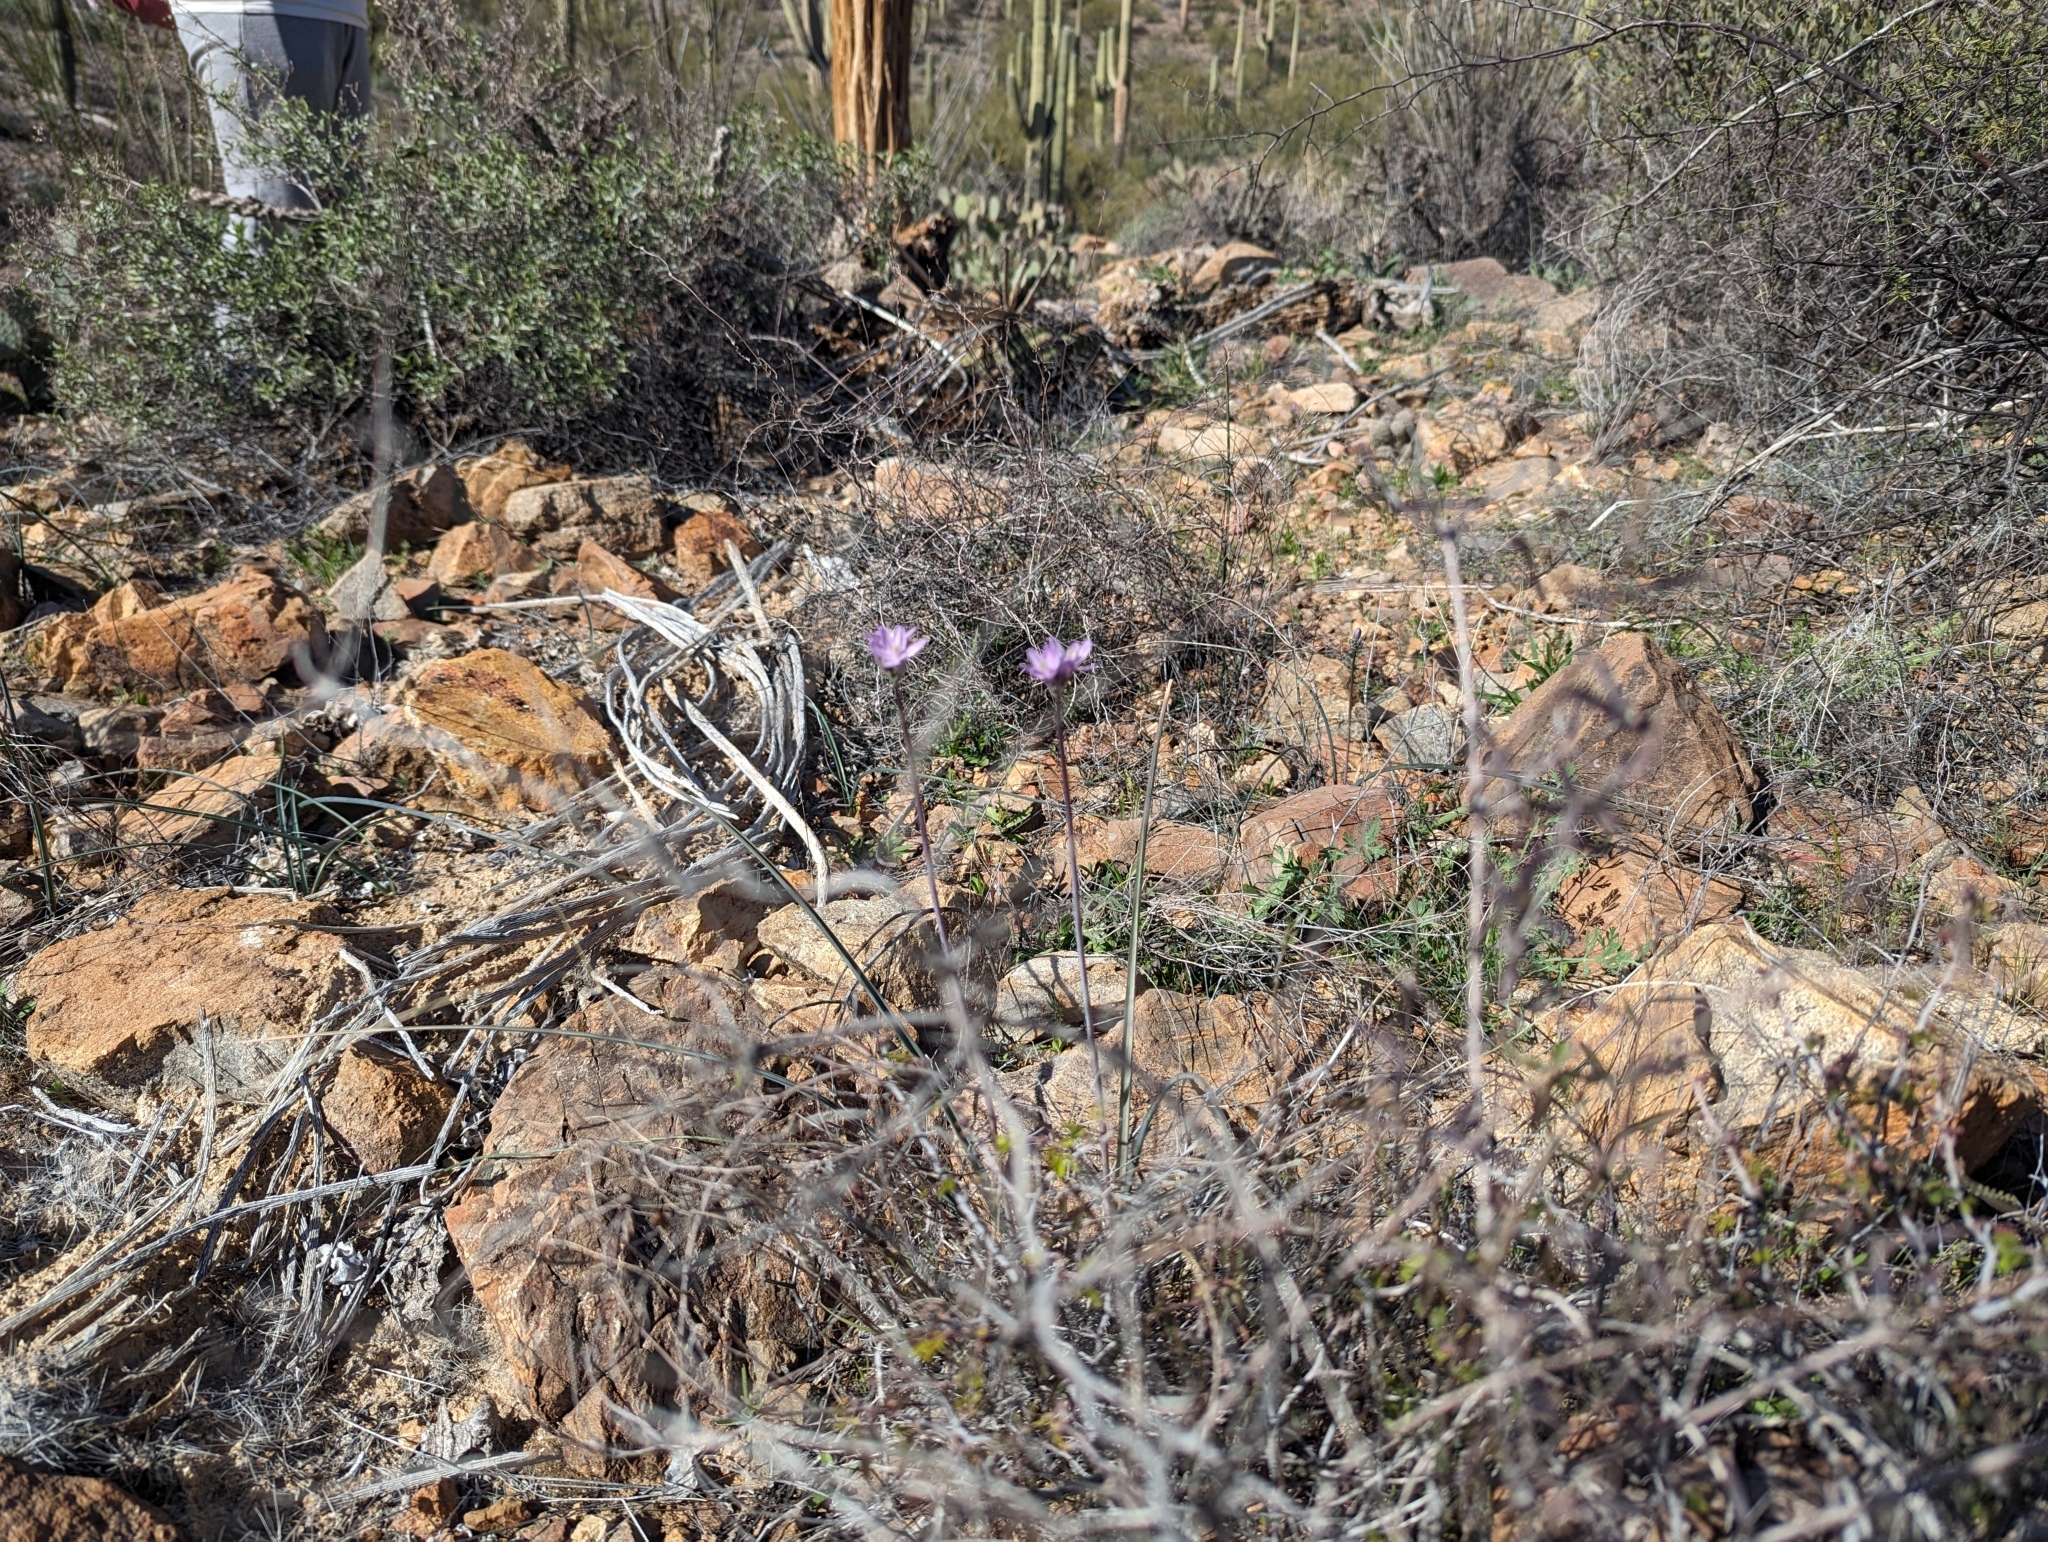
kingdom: Plantae
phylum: Tracheophyta
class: Liliopsida
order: Asparagales
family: Asparagaceae
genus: Dipterostemon
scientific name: Dipterostemon capitatus
